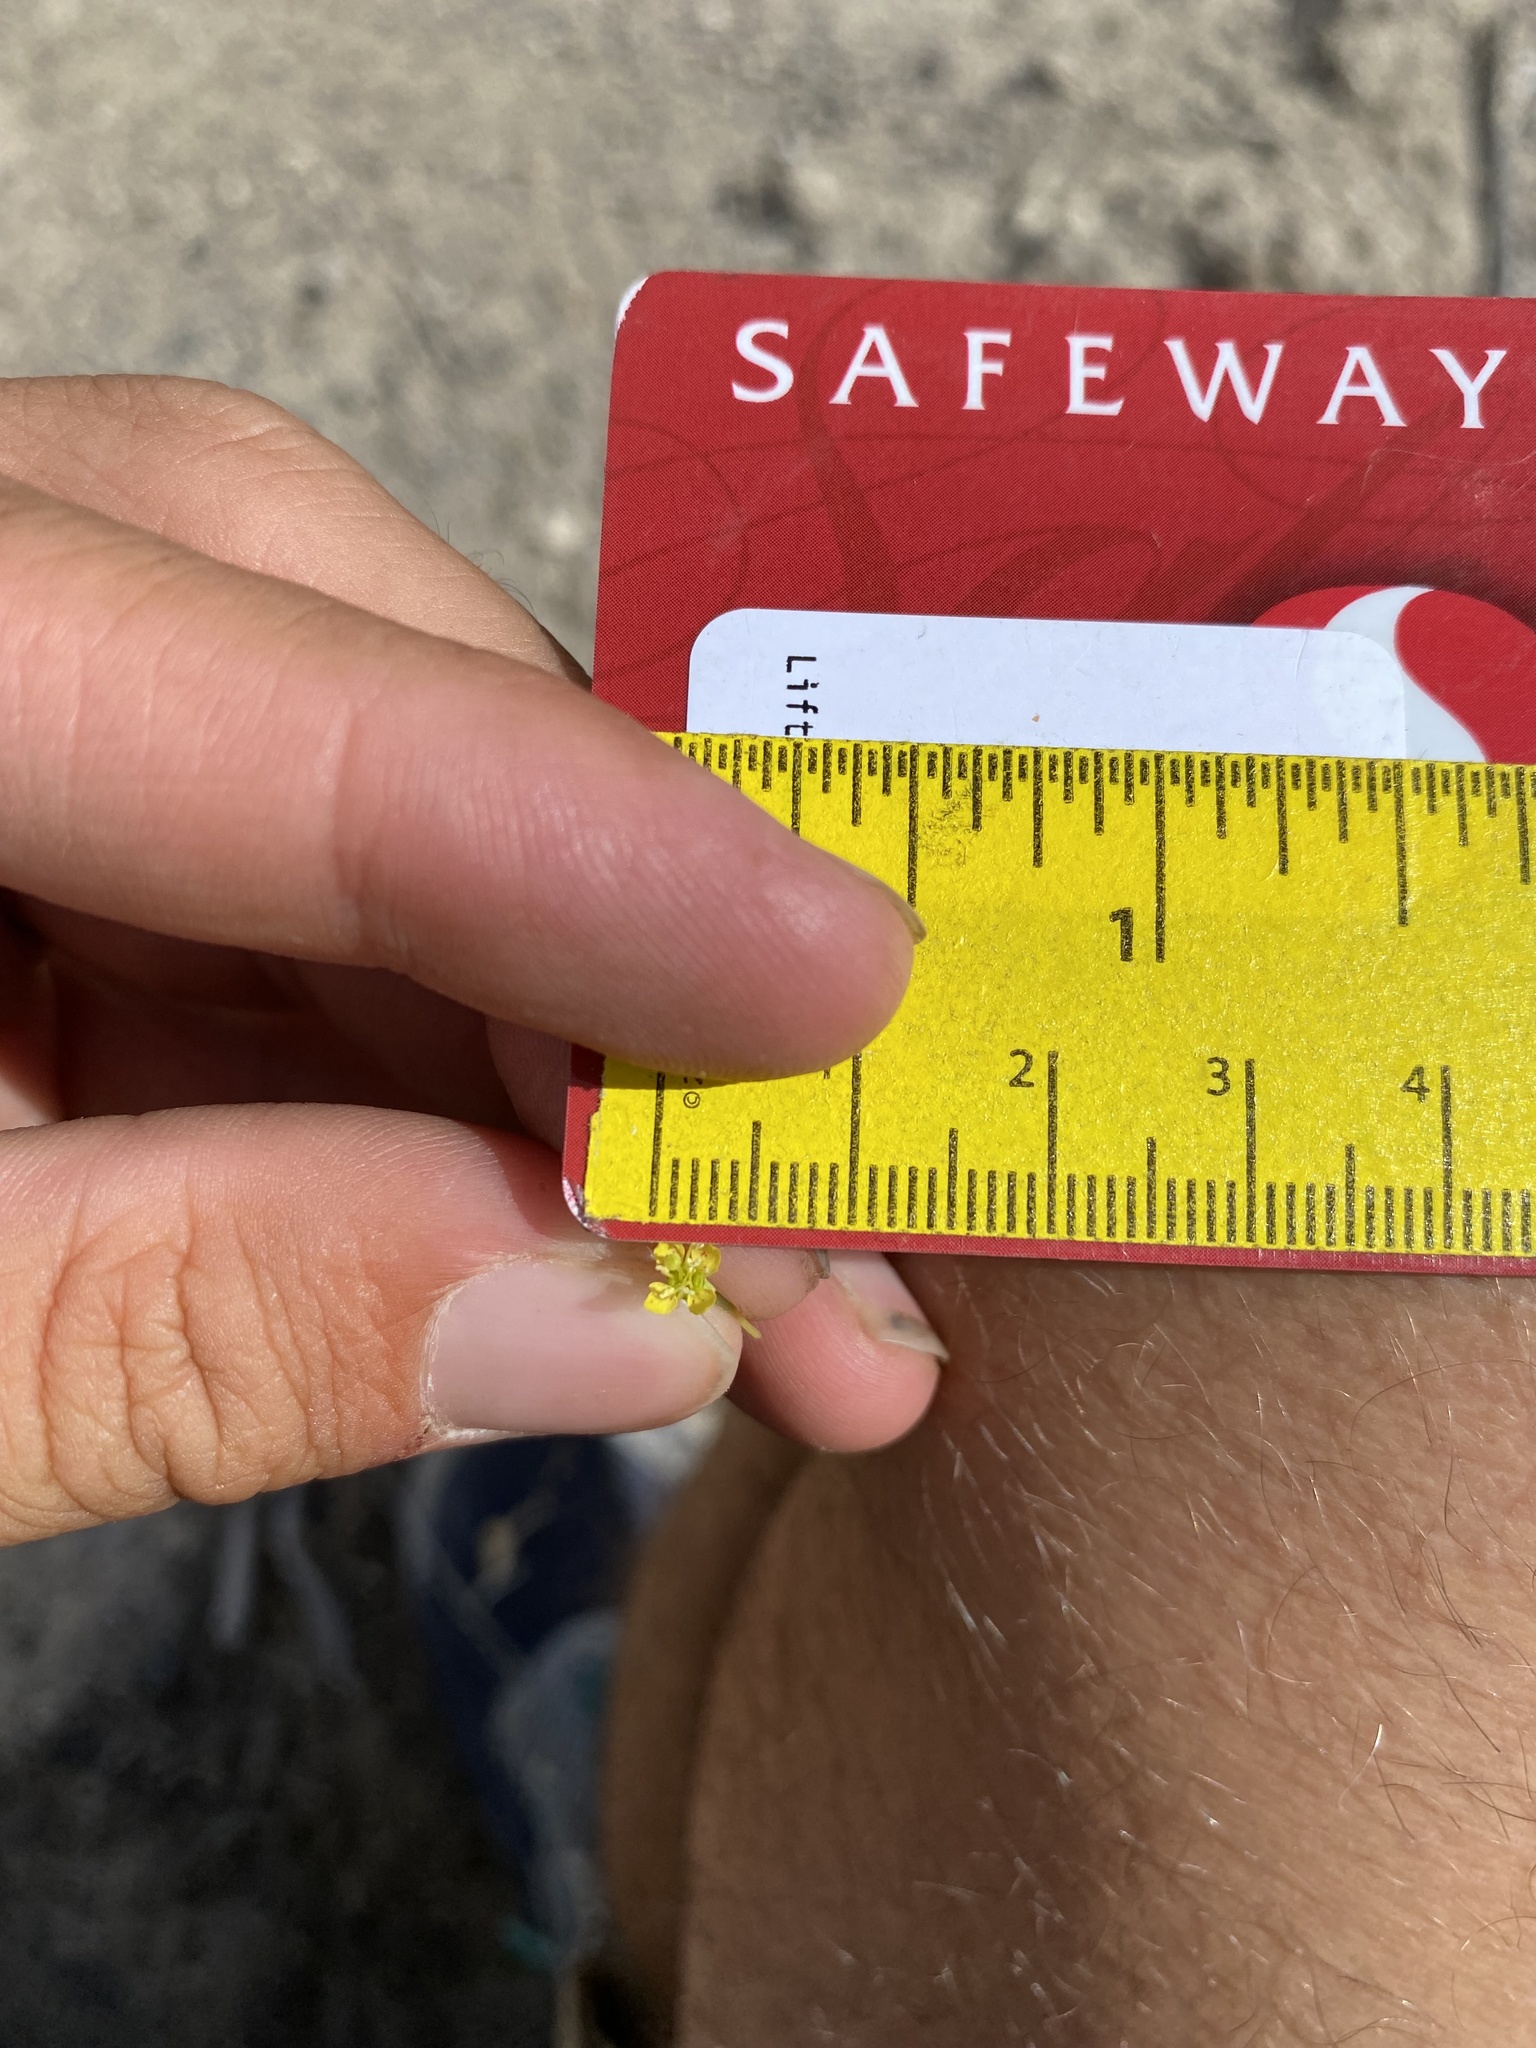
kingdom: Plantae
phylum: Tracheophyta
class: Magnoliopsida
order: Myrtales
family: Onagraceae
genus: Chylismia
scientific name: Chylismia scapoidea
